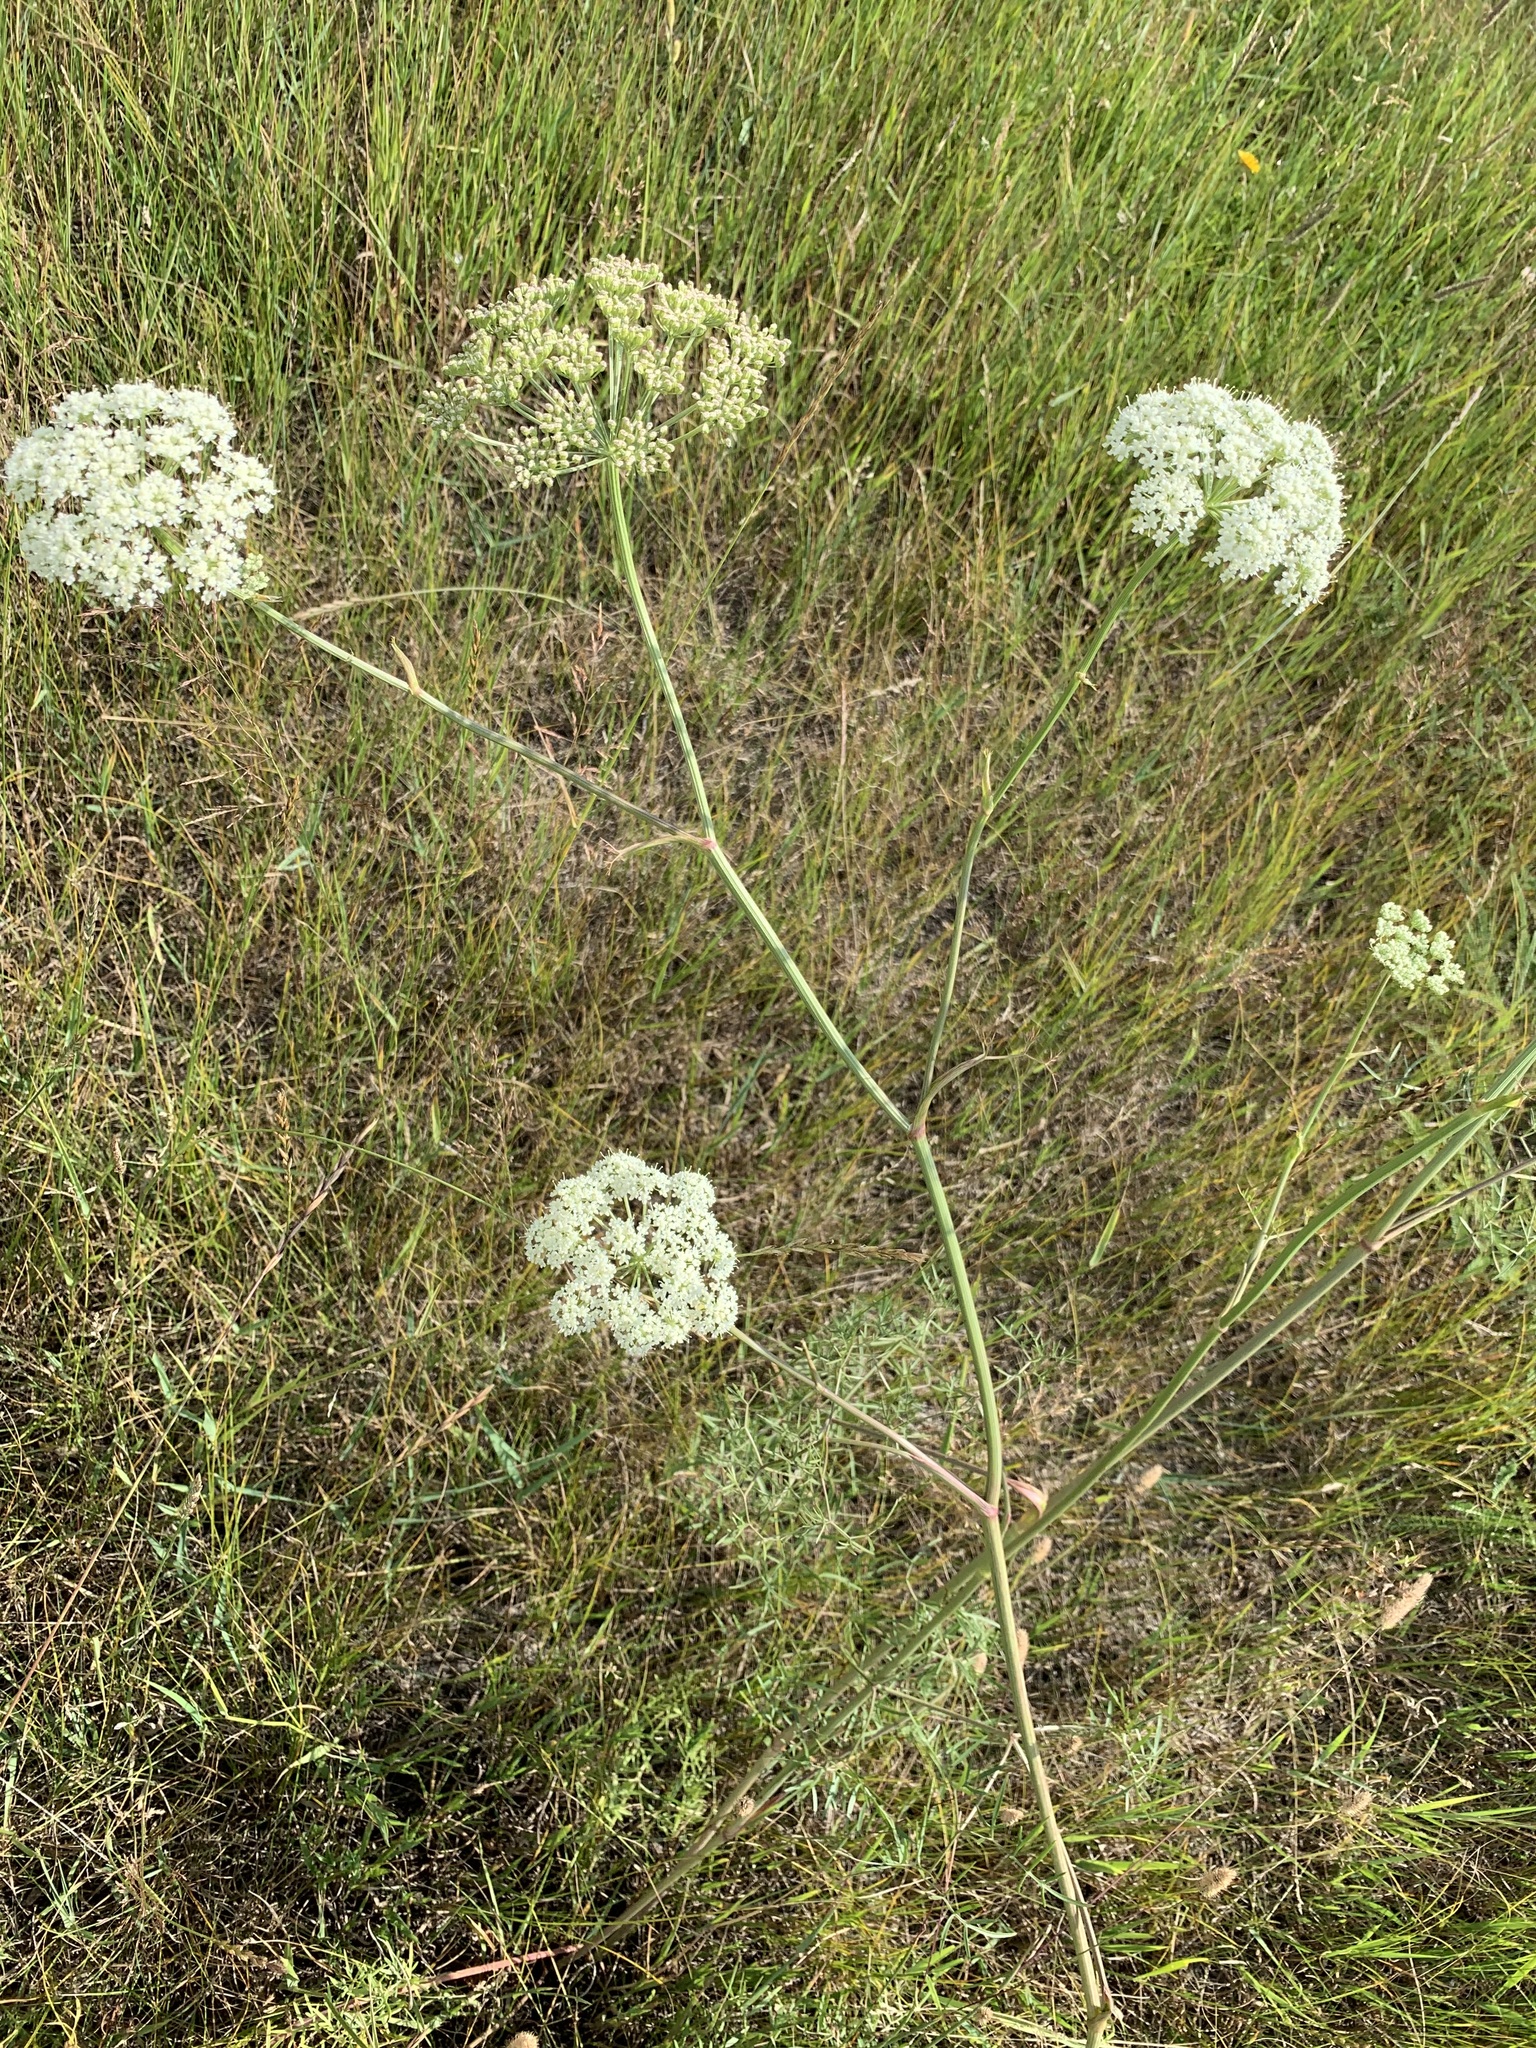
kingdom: Plantae
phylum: Tracheophyta
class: Magnoliopsida
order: Apiales
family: Apiaceae
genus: Cenolophium
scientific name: Cenolophium fischeri
